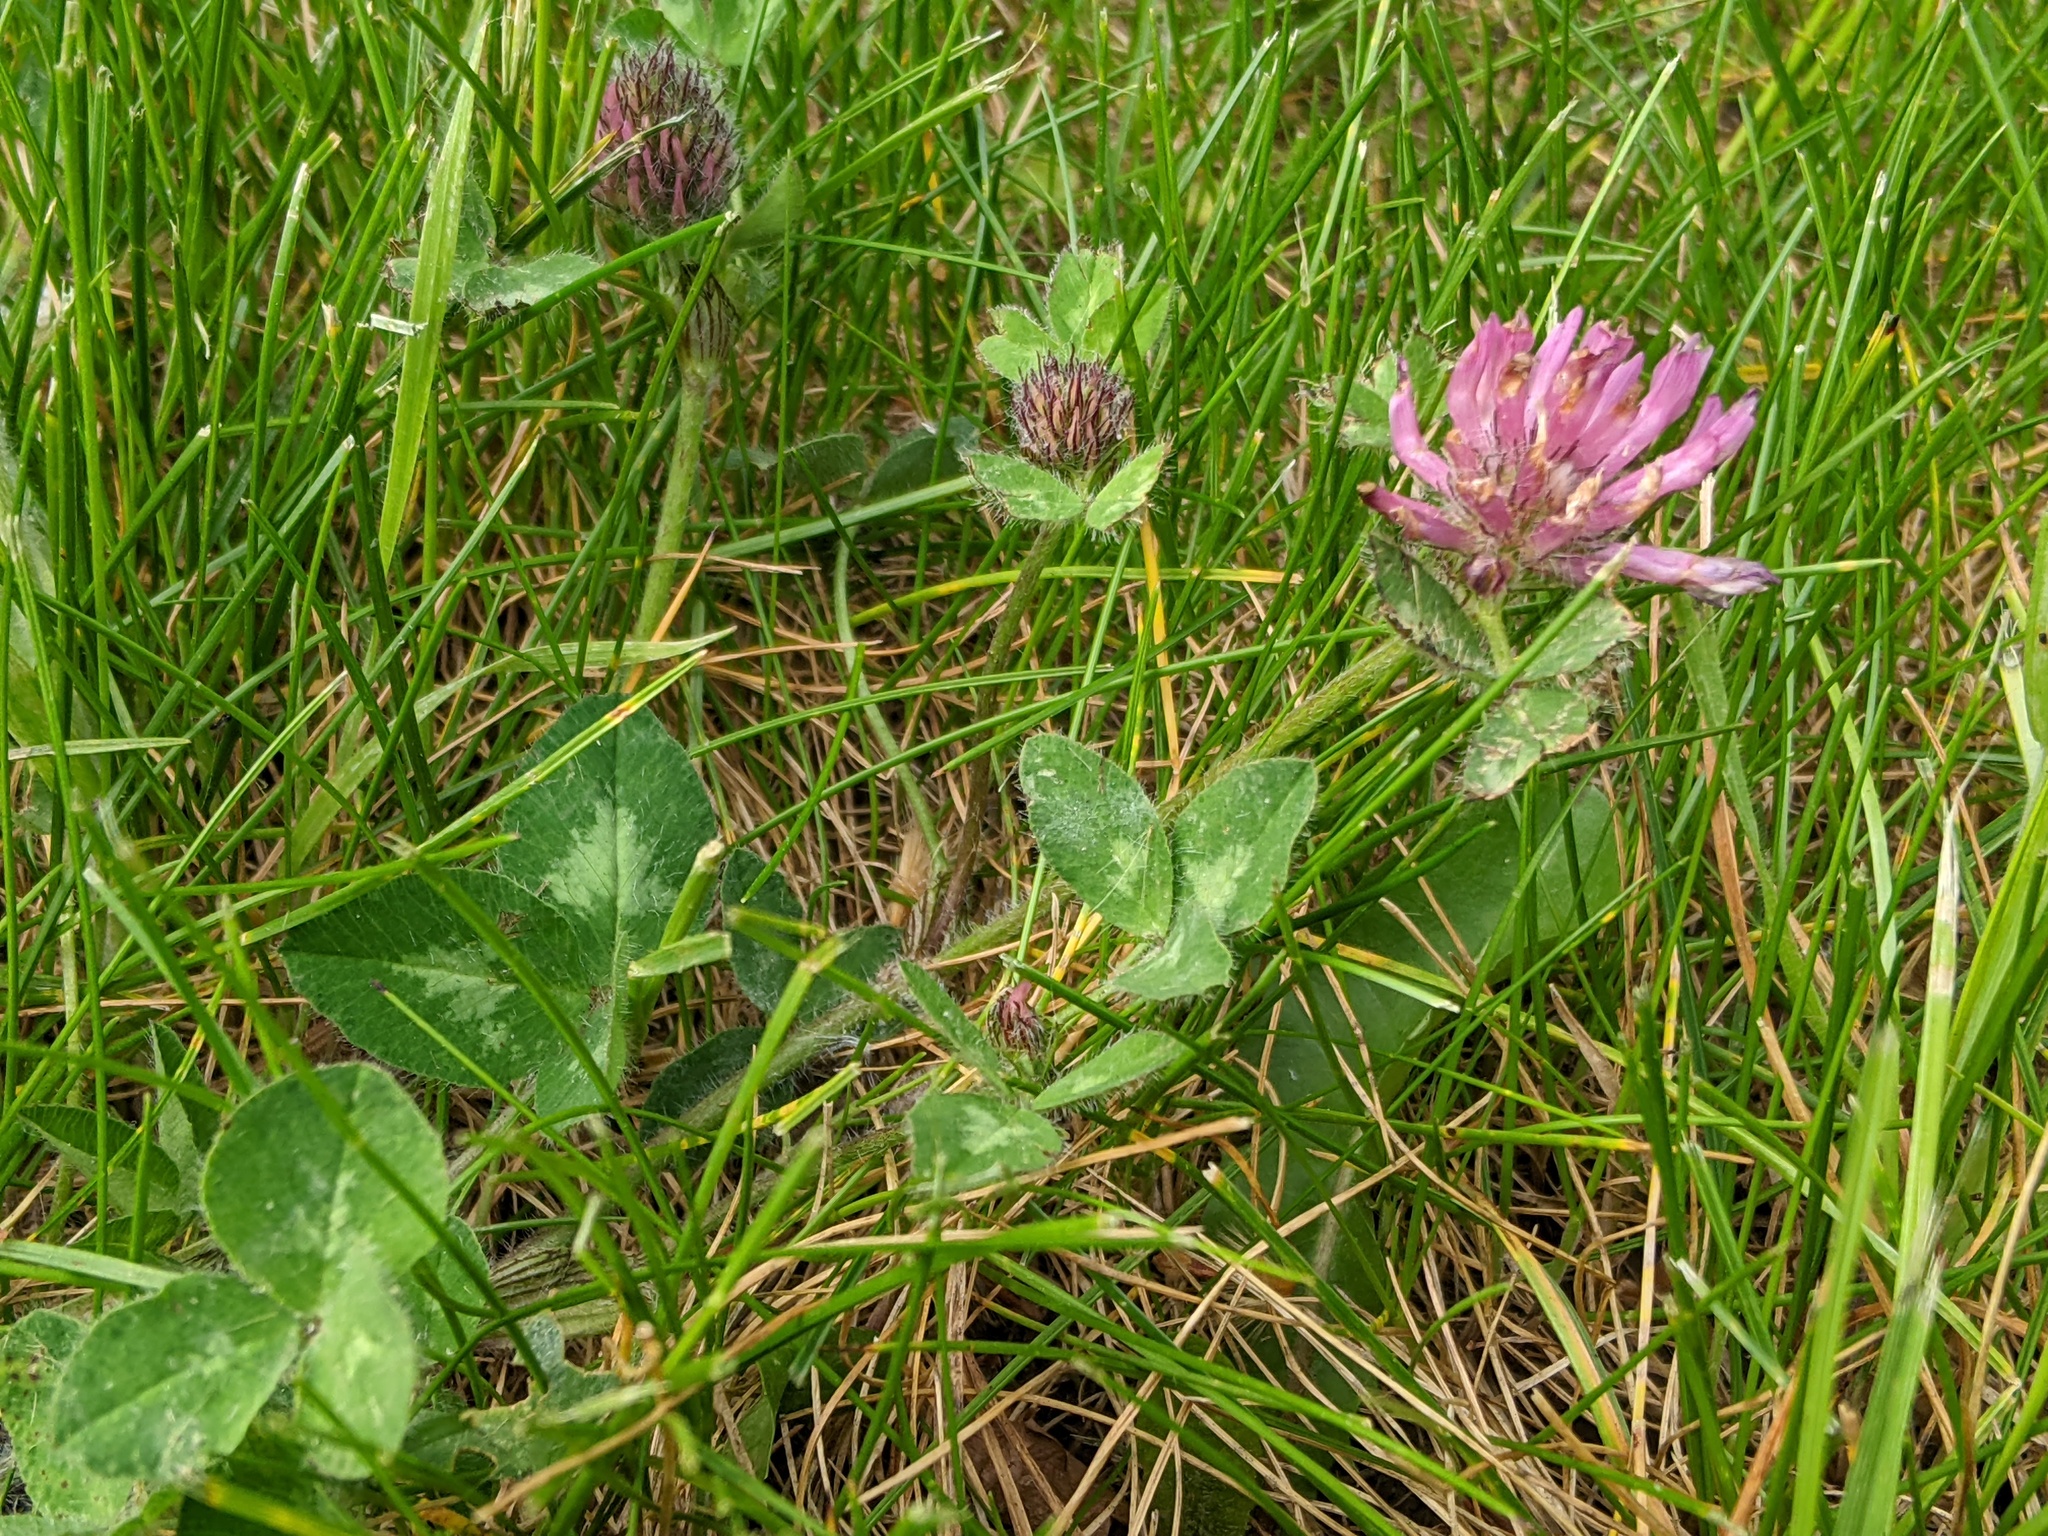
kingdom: Plantae
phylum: Tracheophyta
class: Magnoliopsida
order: Fabales
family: Fabaceae
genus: Trifolium
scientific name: Trifolium pratense
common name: Red clover
